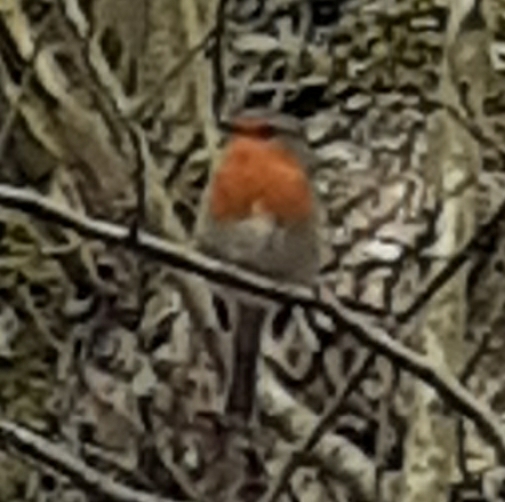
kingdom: Animalia
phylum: Chordata
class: Aves
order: Passeriformes
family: Muscicapidae
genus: Erithacus
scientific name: Erithacus rubecula
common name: European robin
